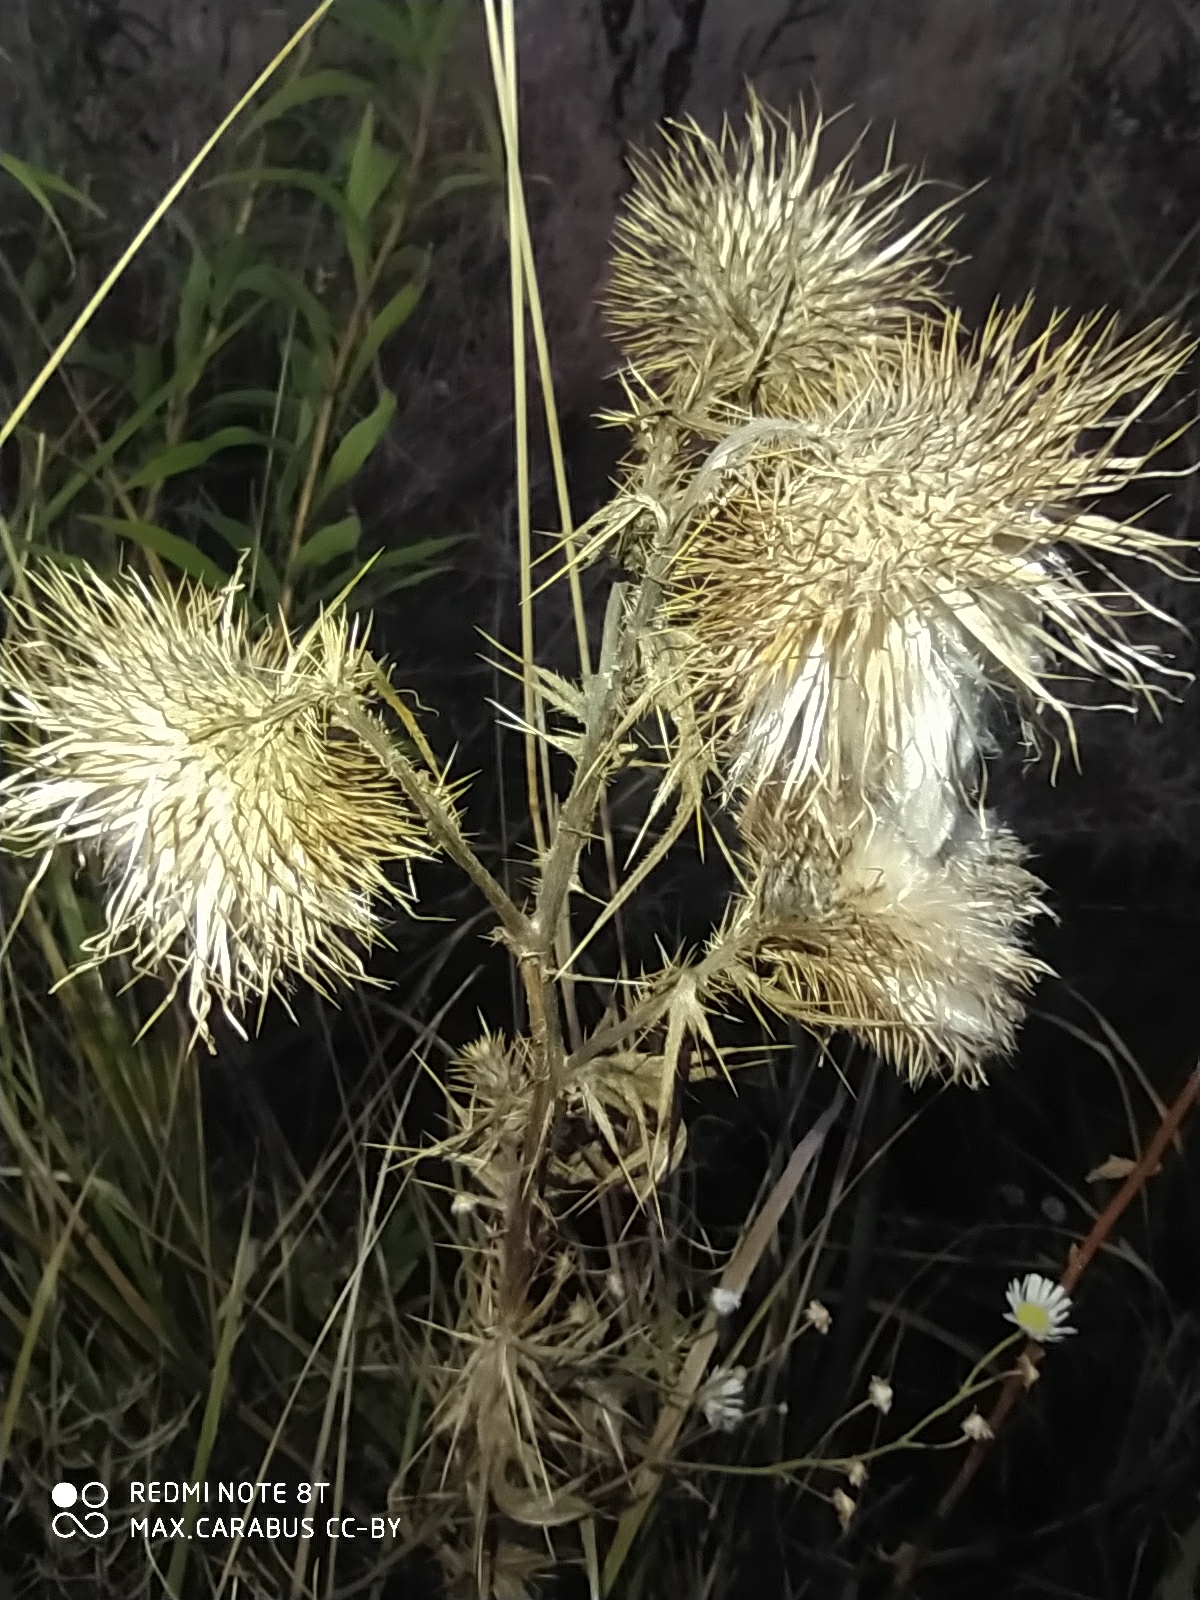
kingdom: Plantae
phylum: Tracheophyta
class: Magnoliopsida
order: Asterales
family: Asteraceae
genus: Cirsium
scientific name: Cirsium vulgare
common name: Bull thistle
